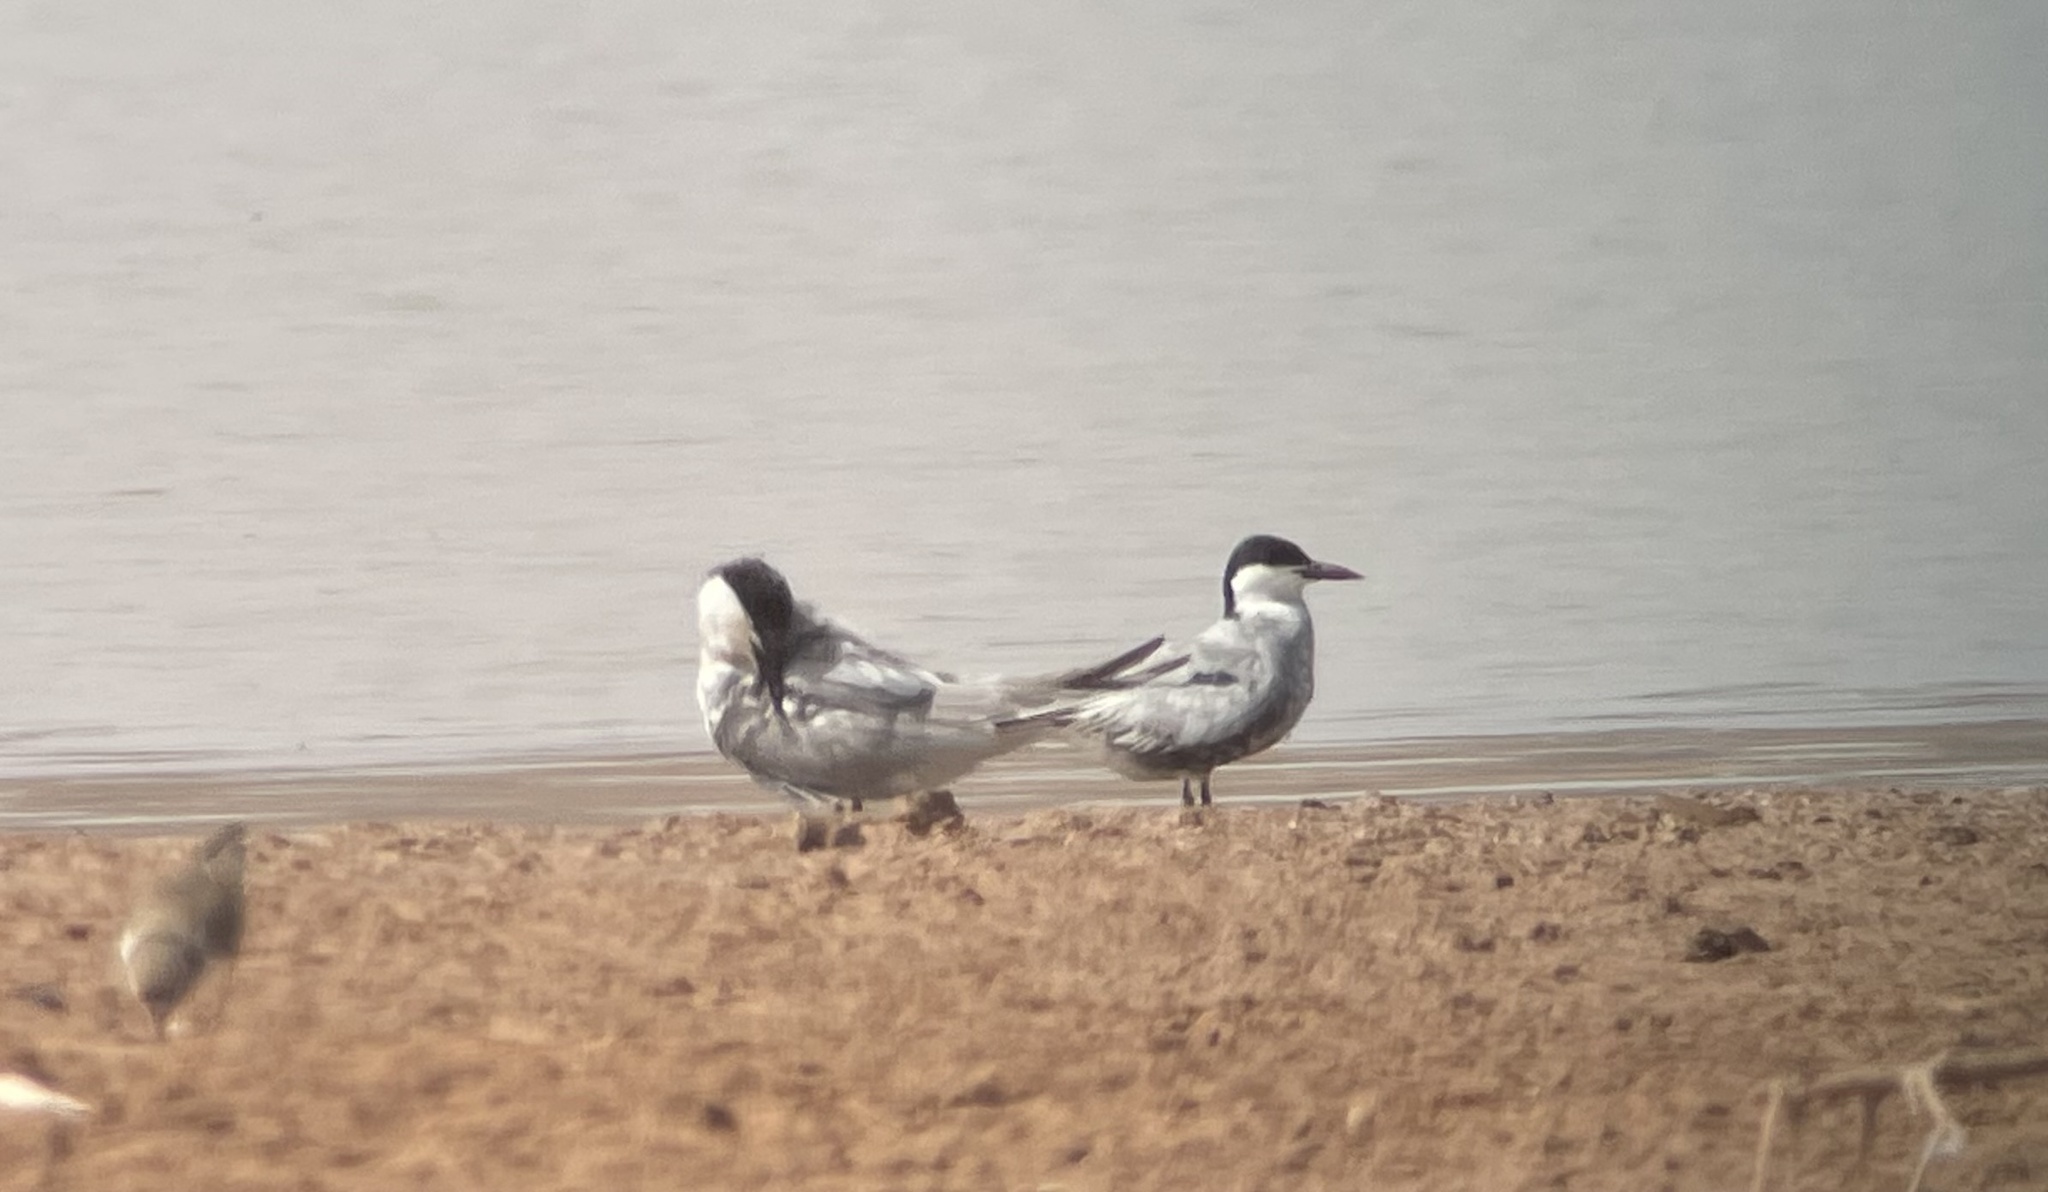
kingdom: Animalia
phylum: Chordata
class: Aves
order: Charadriiformes
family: Laridae
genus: Gelochelidon
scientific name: Gelochelidon nilotica
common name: Gull-billed tern
